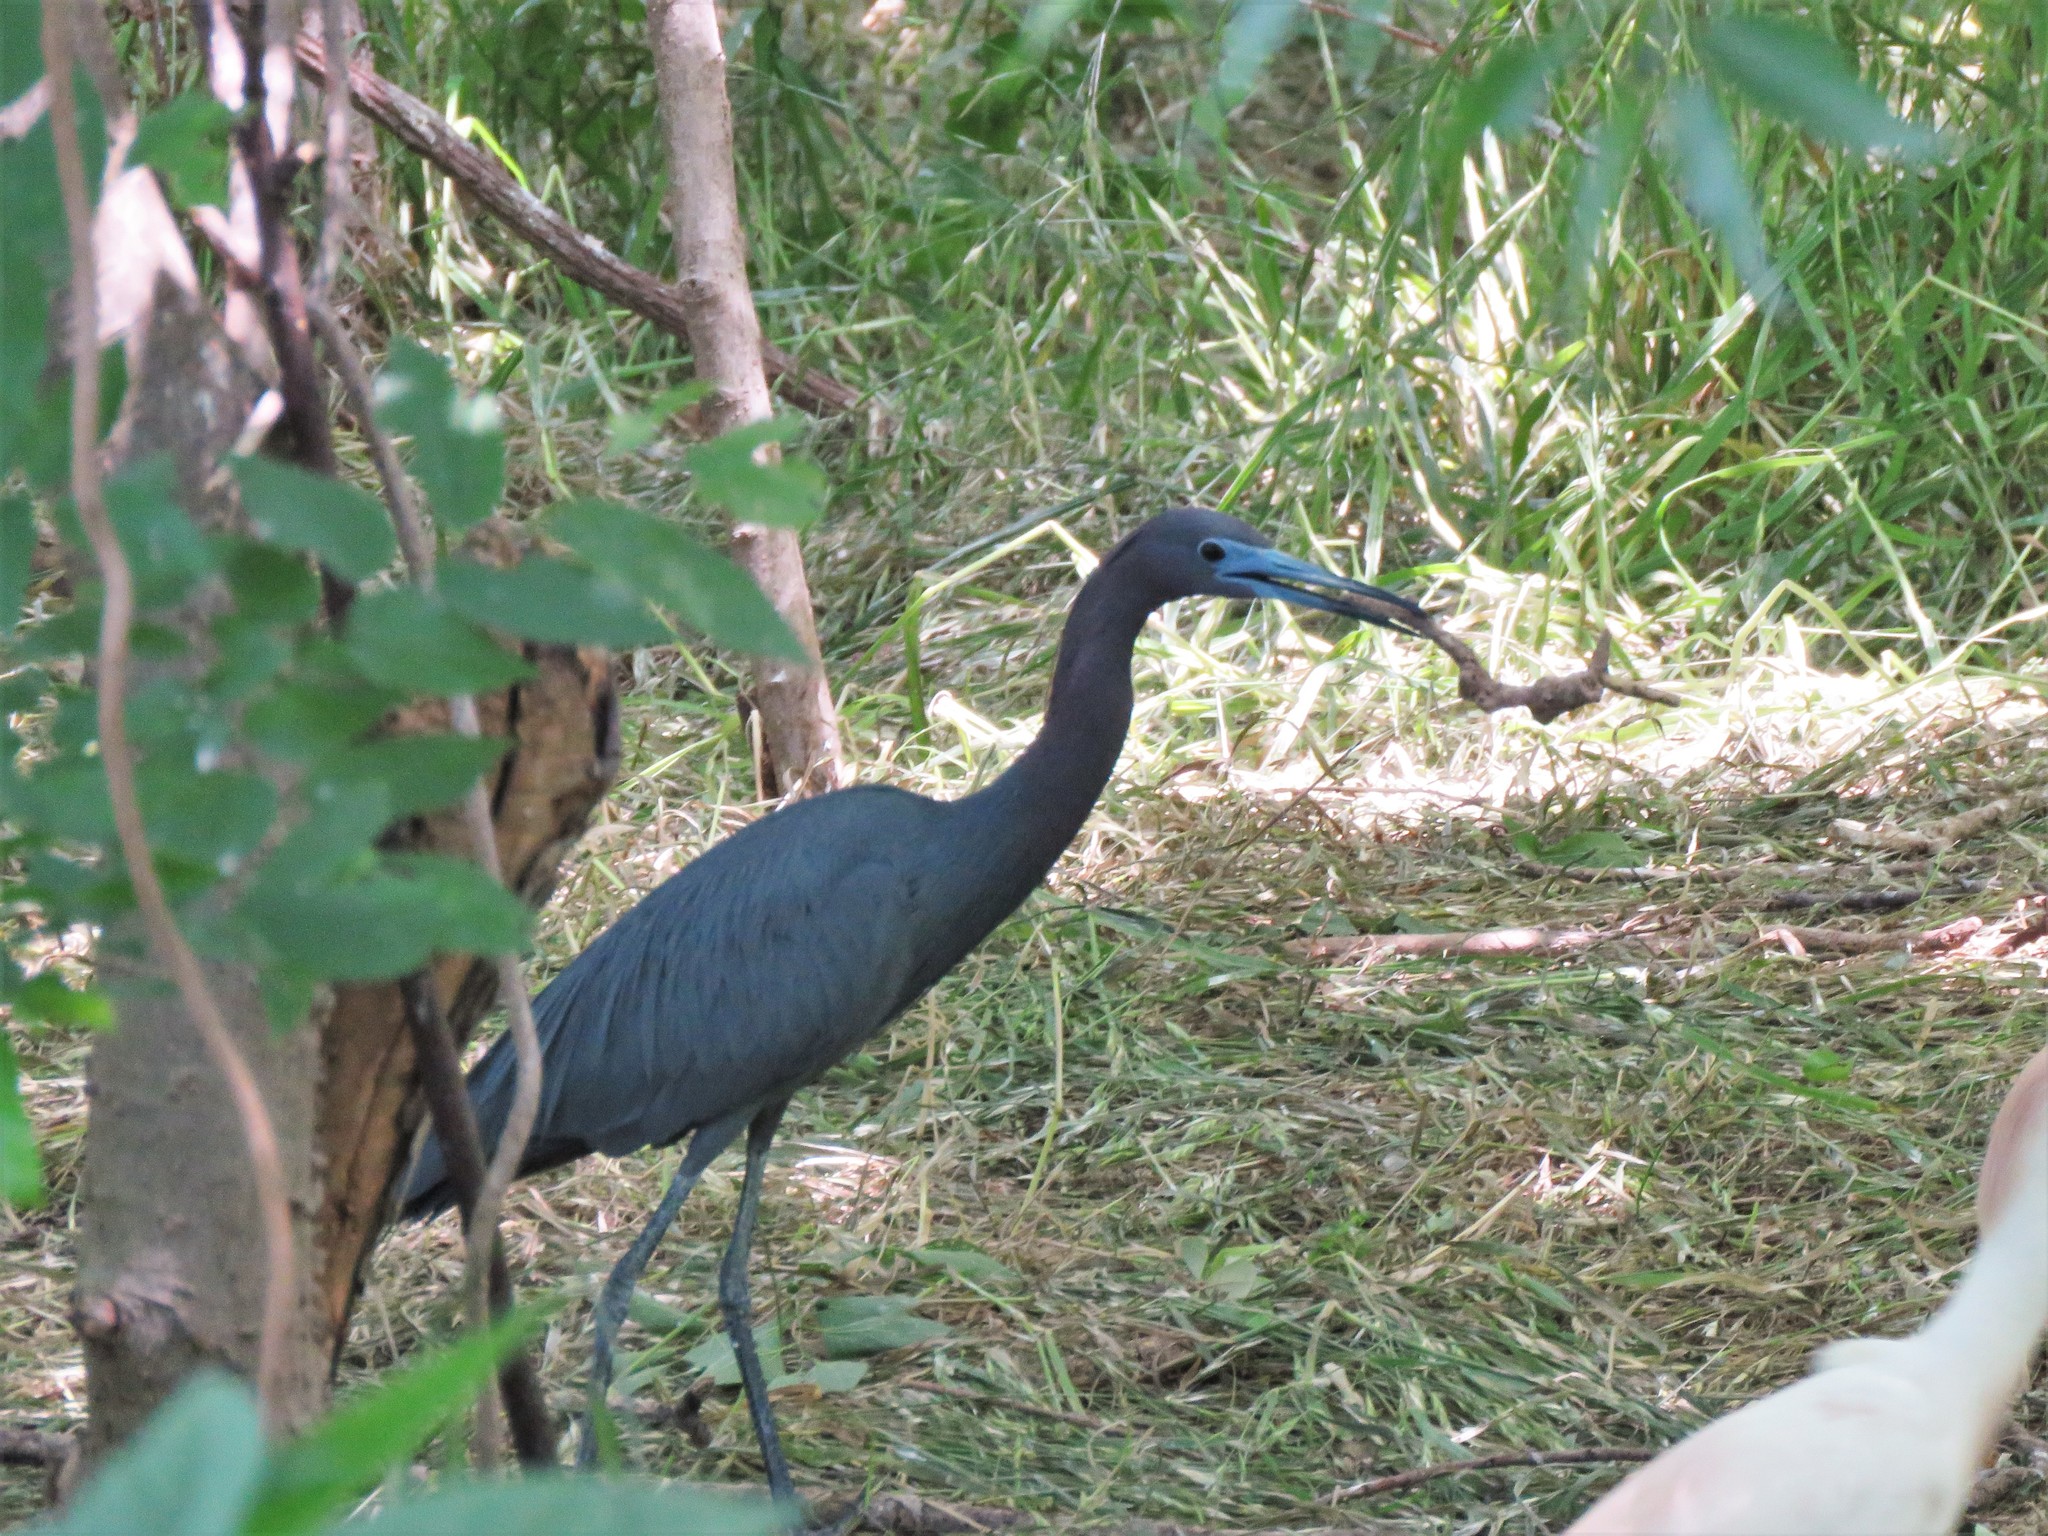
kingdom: Animalia
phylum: Chordata
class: Aves
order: Pelecaniformes
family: Ardeidae
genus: Egretta
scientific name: Egretta caerulea
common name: Little blue heron
